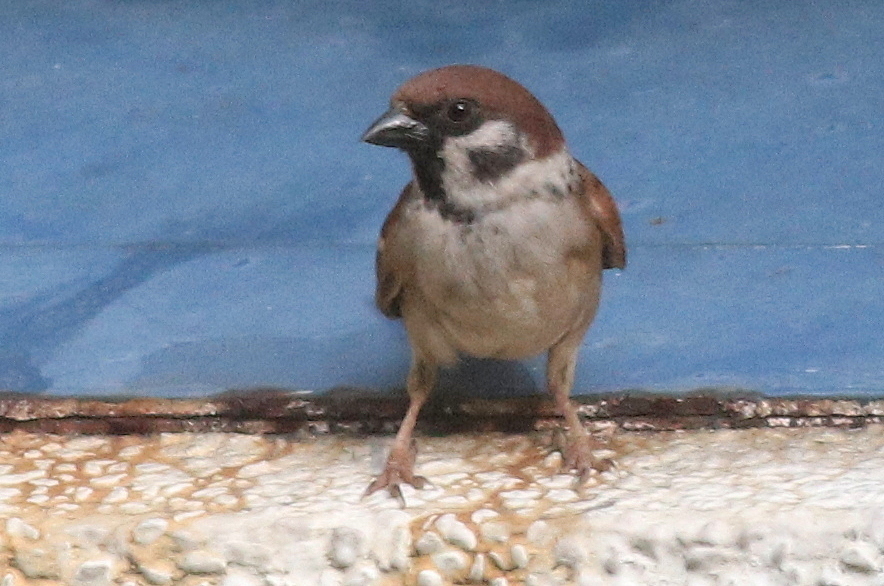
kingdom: Animalia
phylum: Chordata
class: Aves
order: Passeriformes
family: Passeridae
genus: Passer
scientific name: Passer montanus
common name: Eurasian tree sparrow
